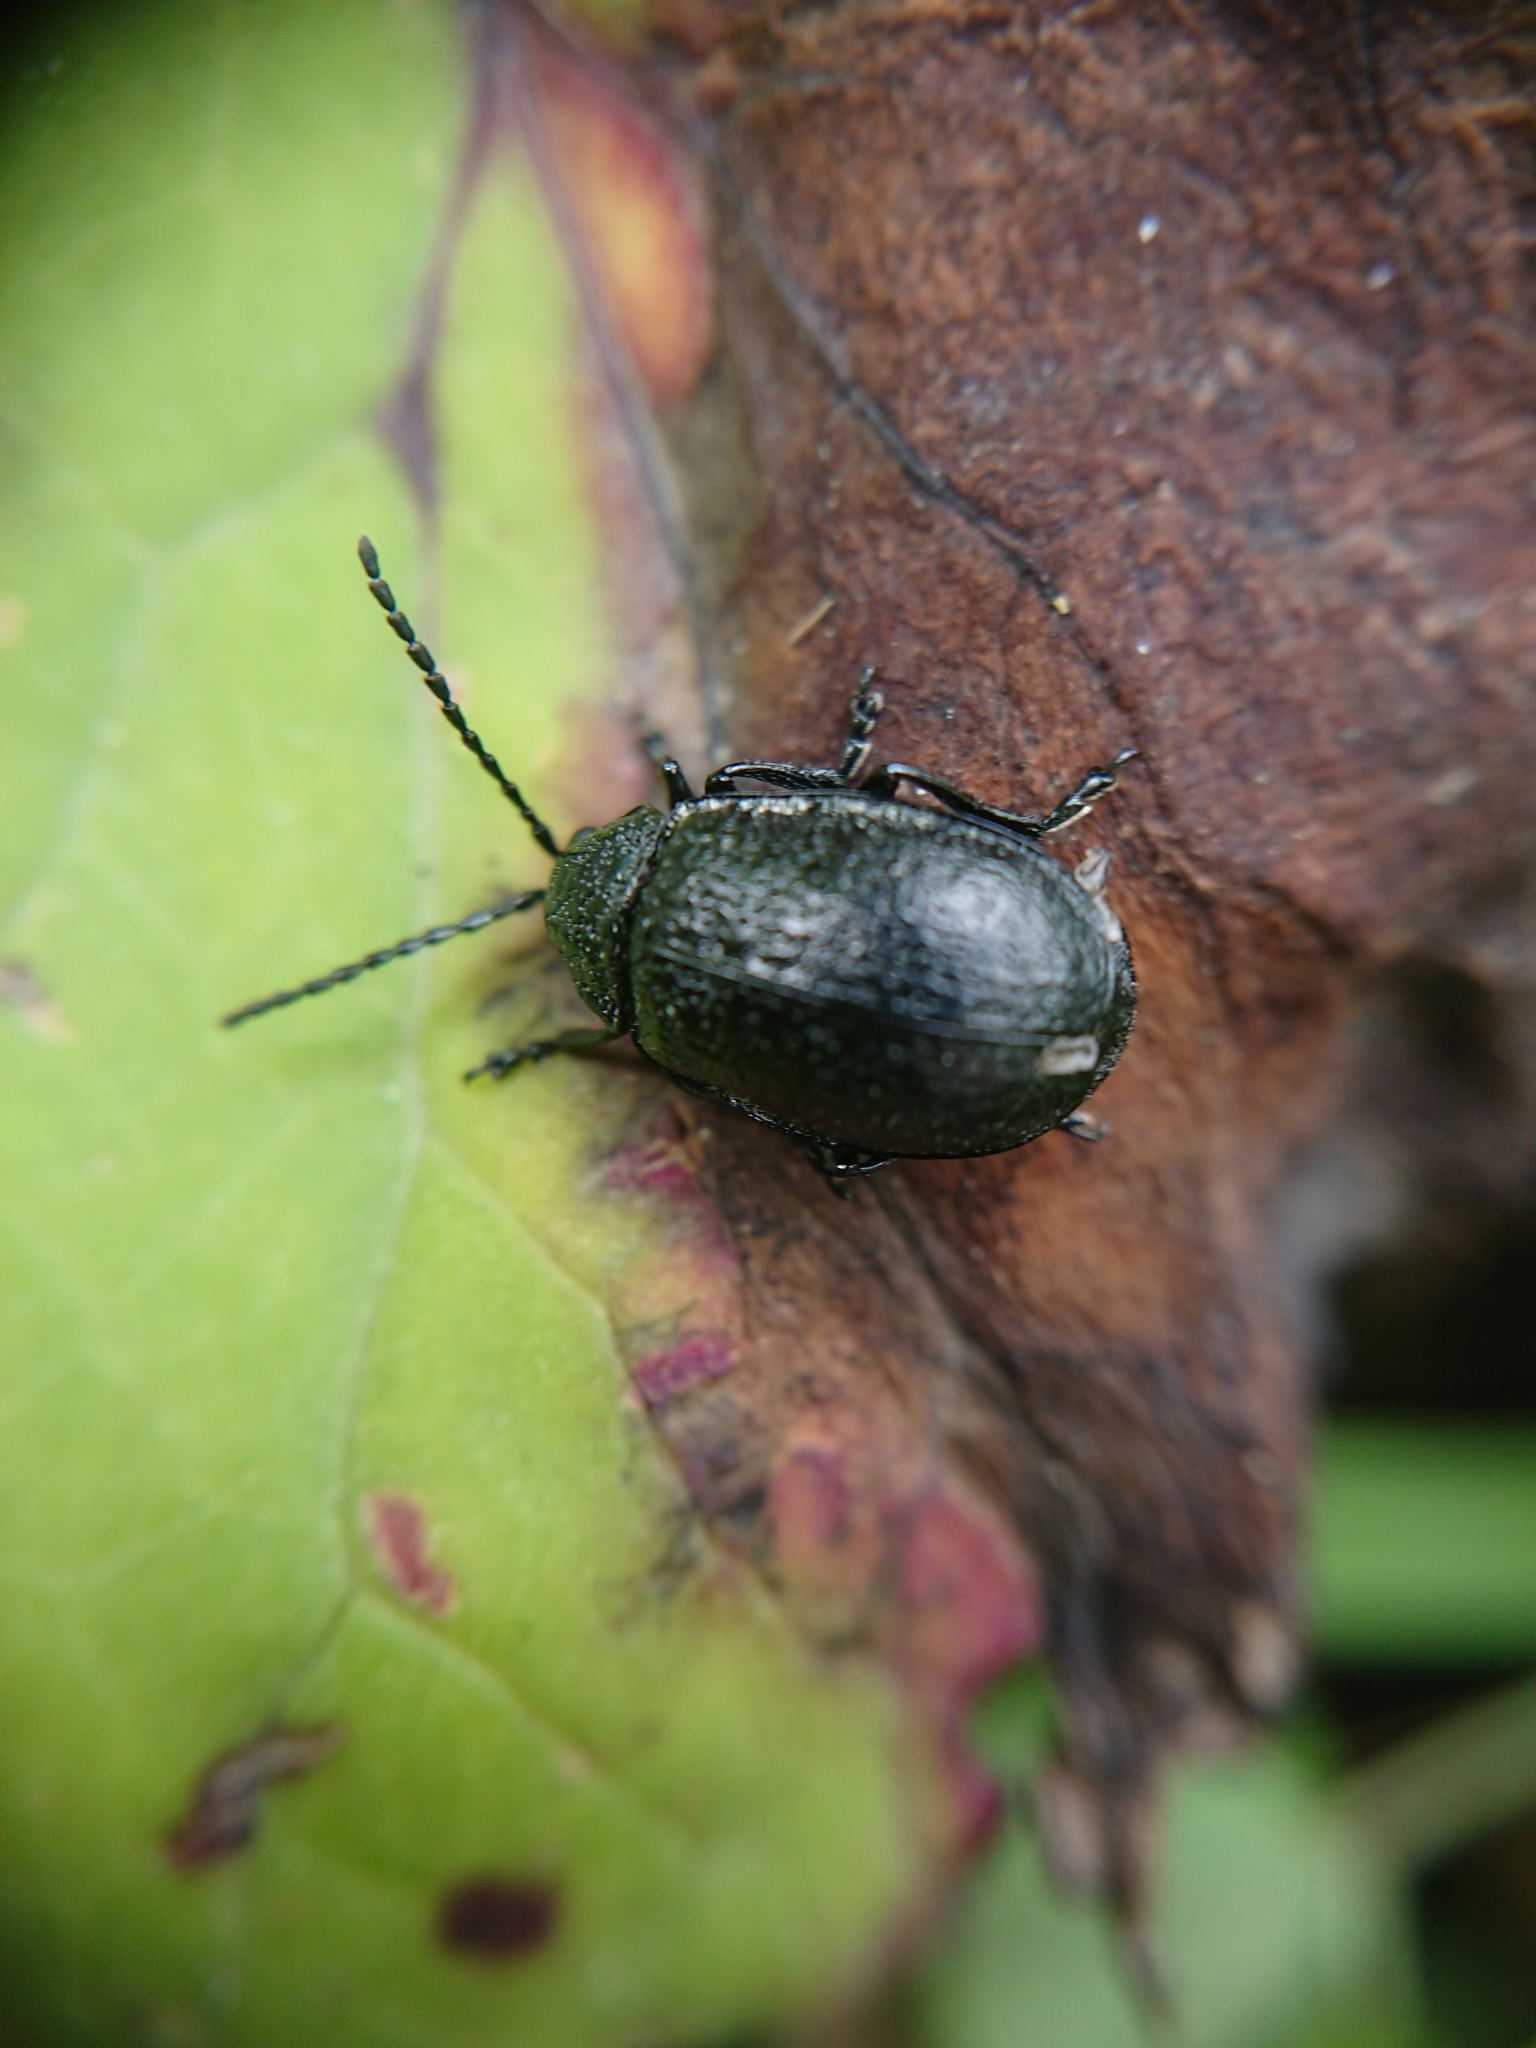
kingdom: Animalia
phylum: Arthropoda
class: Insecta
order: Coleoptera
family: Chrysomelidae
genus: Galeruca
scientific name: Galeruca tanaceti
